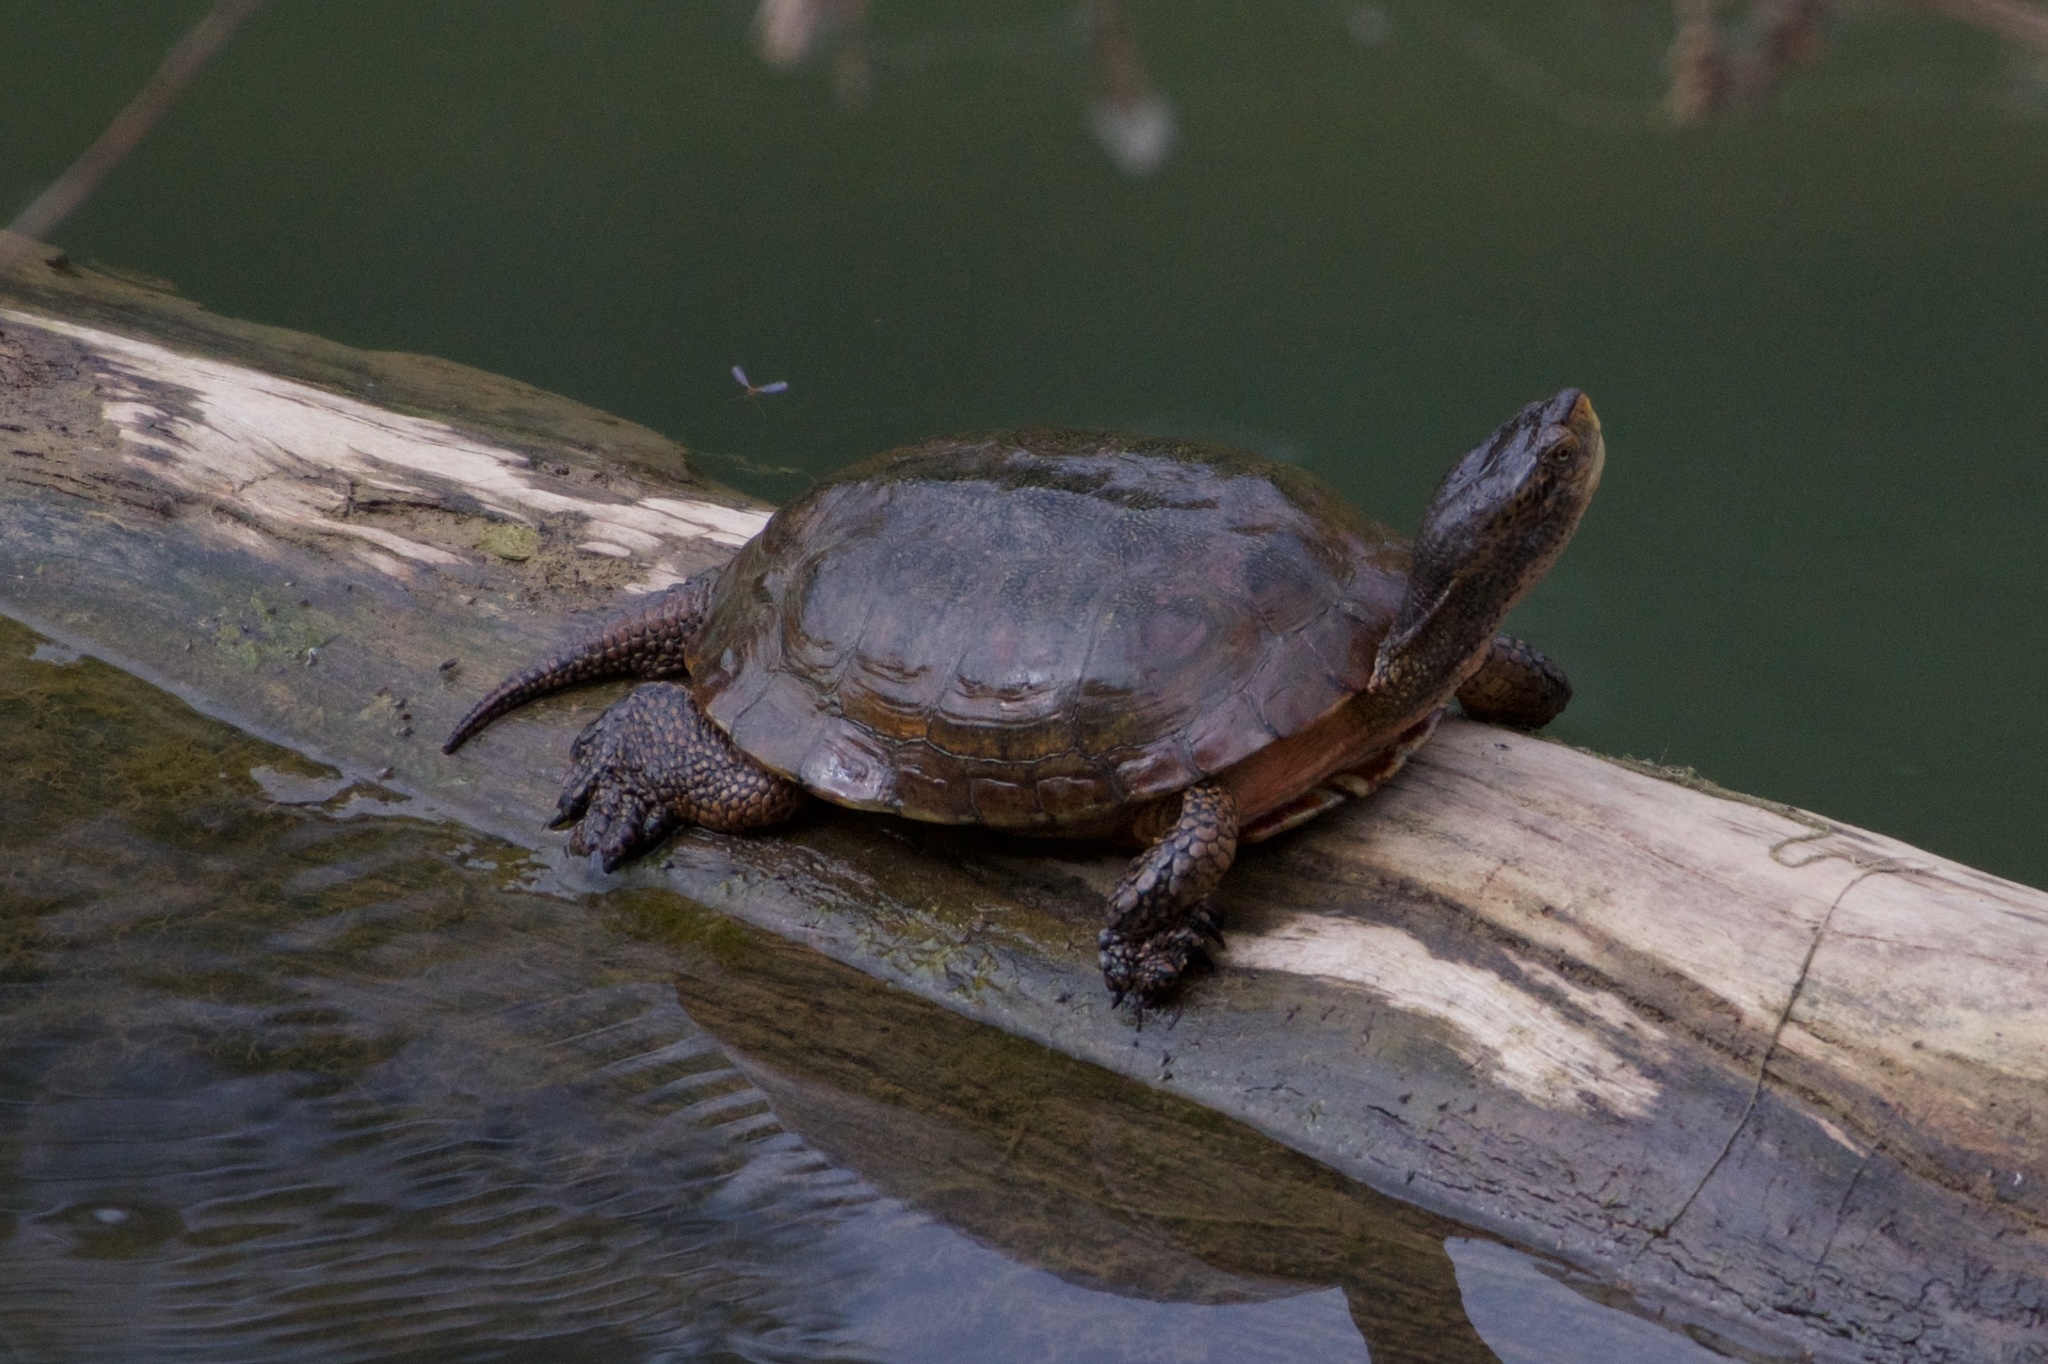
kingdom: Animalia
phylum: Chordata
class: Testudines
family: Emydidae
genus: Actinemys
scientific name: Actinemys marmorata
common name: Western pond turtle
